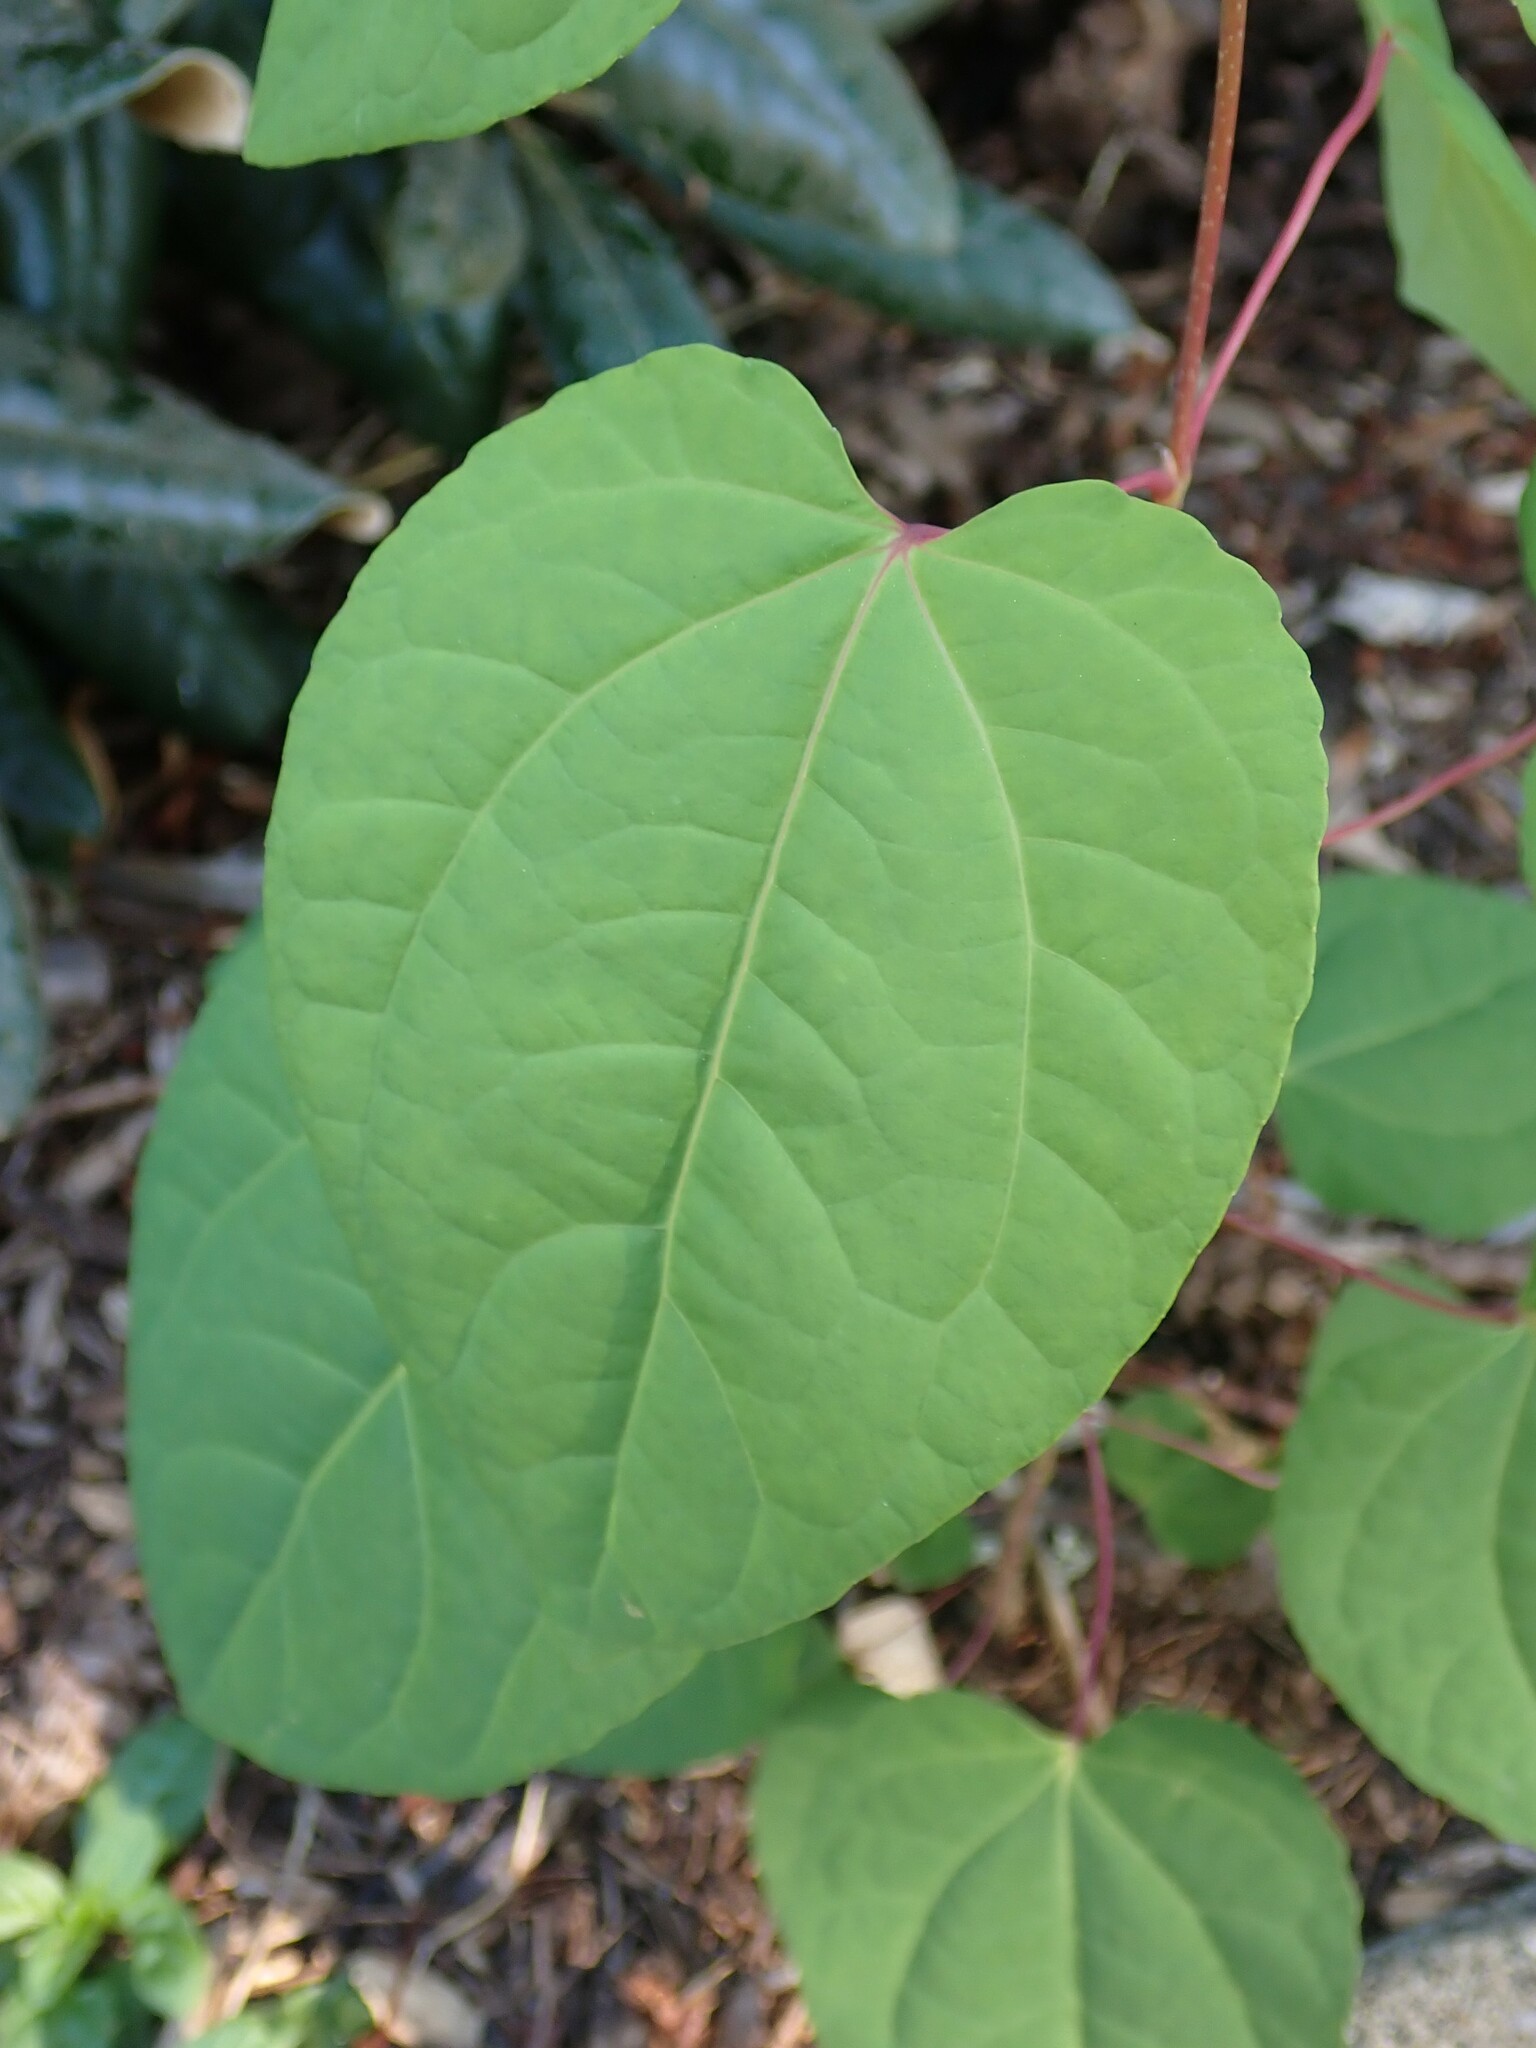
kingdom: Plantae
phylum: Tracheophyta
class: Magnoliopsida
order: Saxifragales
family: Cercidiphyllaceae
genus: Cercidiphyllum
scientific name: Cercidiphyllum japonicum
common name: Katsura tree
